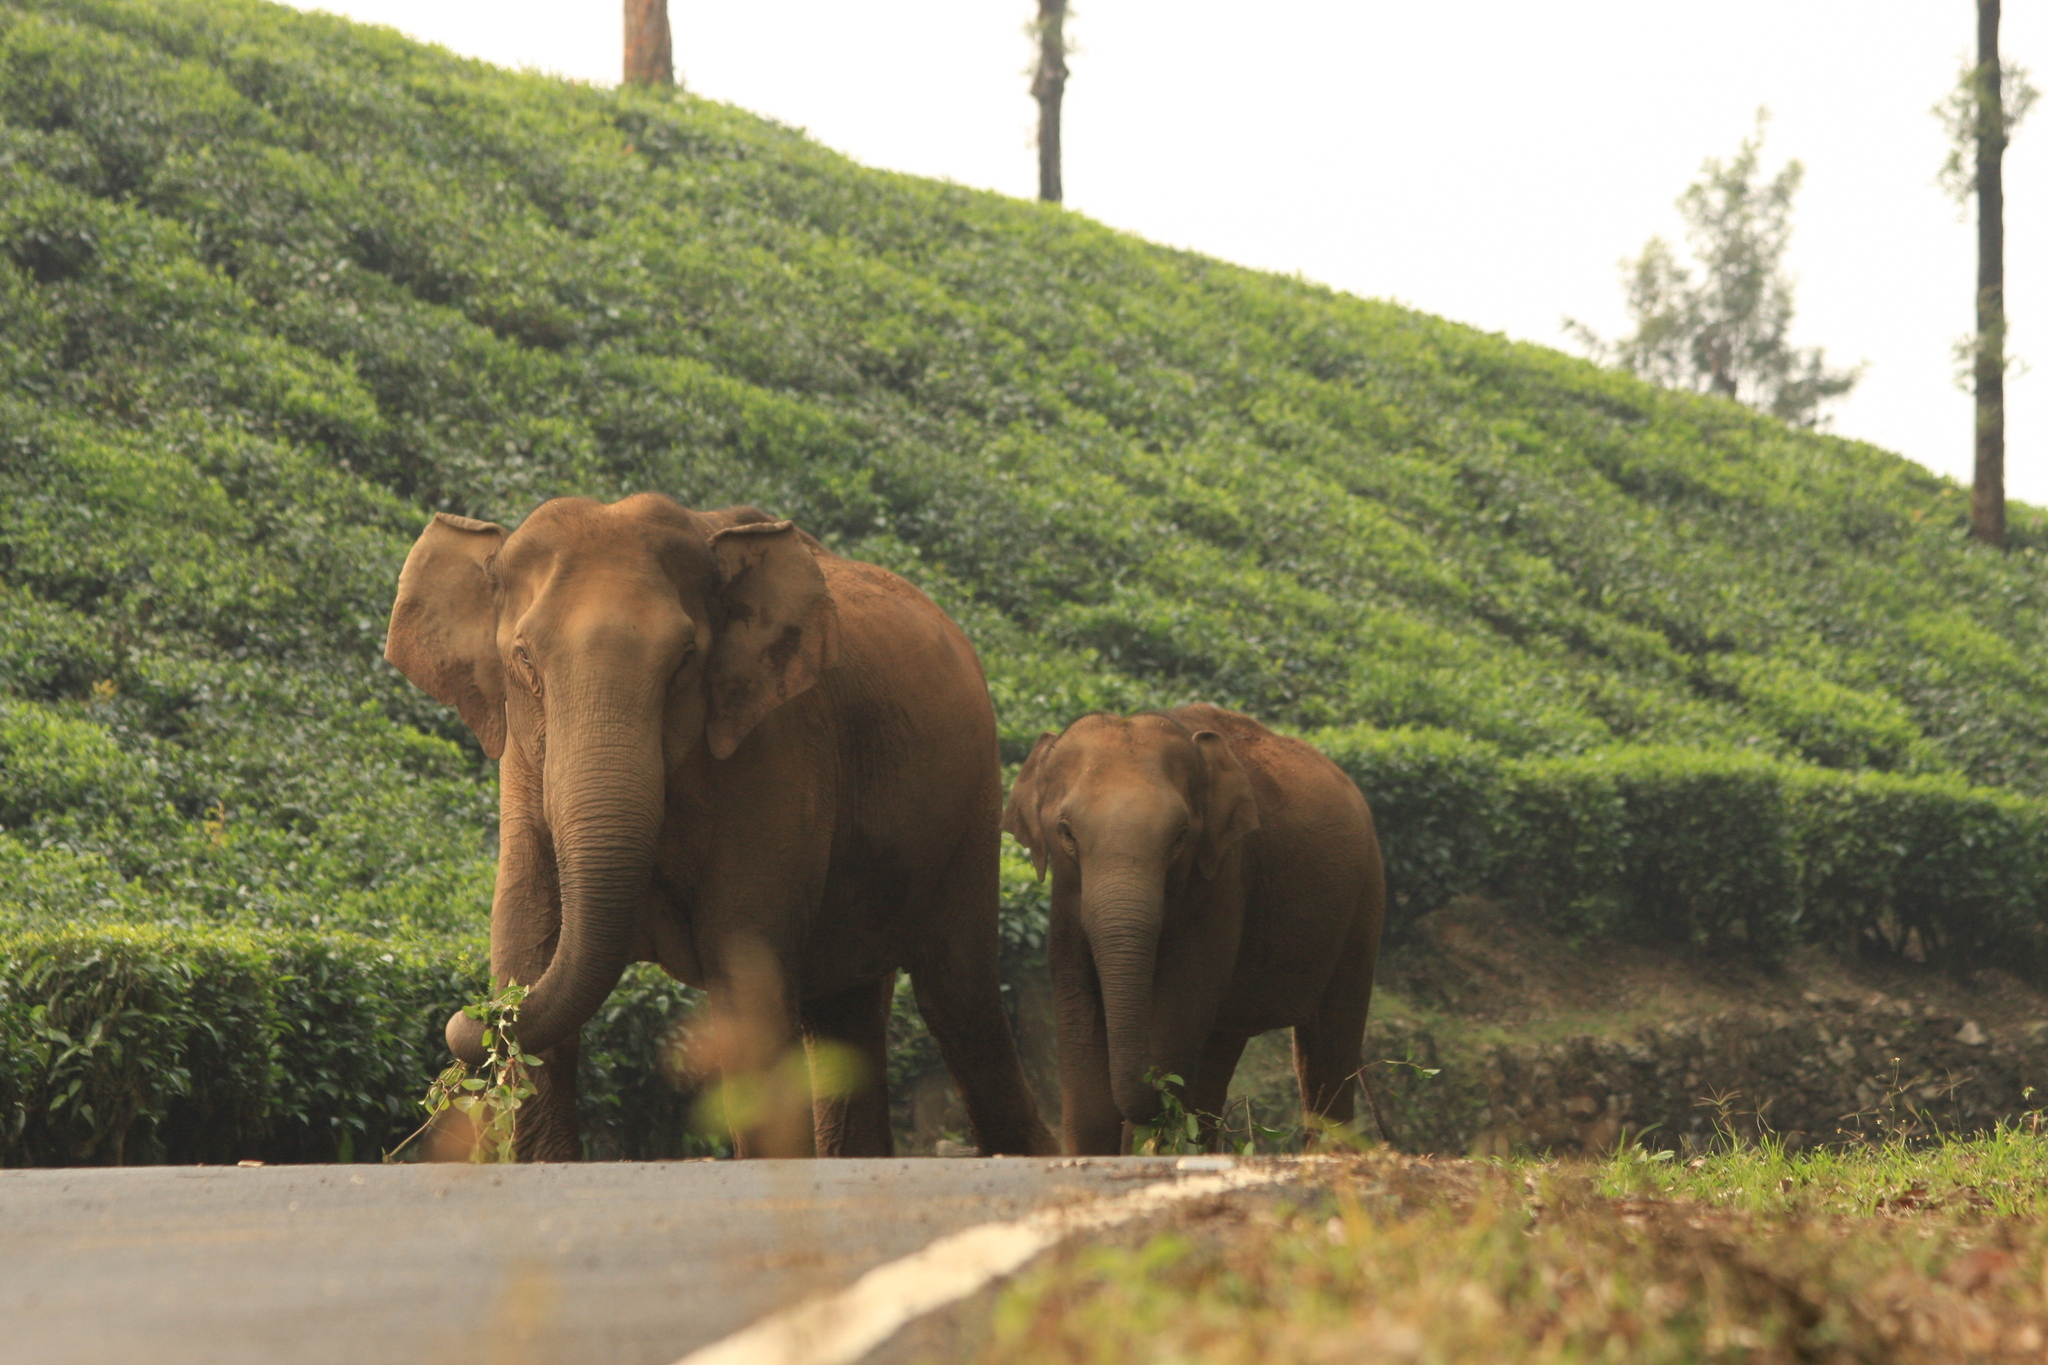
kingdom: Animalia
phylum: Chordata
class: Mammalia
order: Proboscidea
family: Elephantidae
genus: Elephas
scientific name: Elephas maximus
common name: Asian elephant
